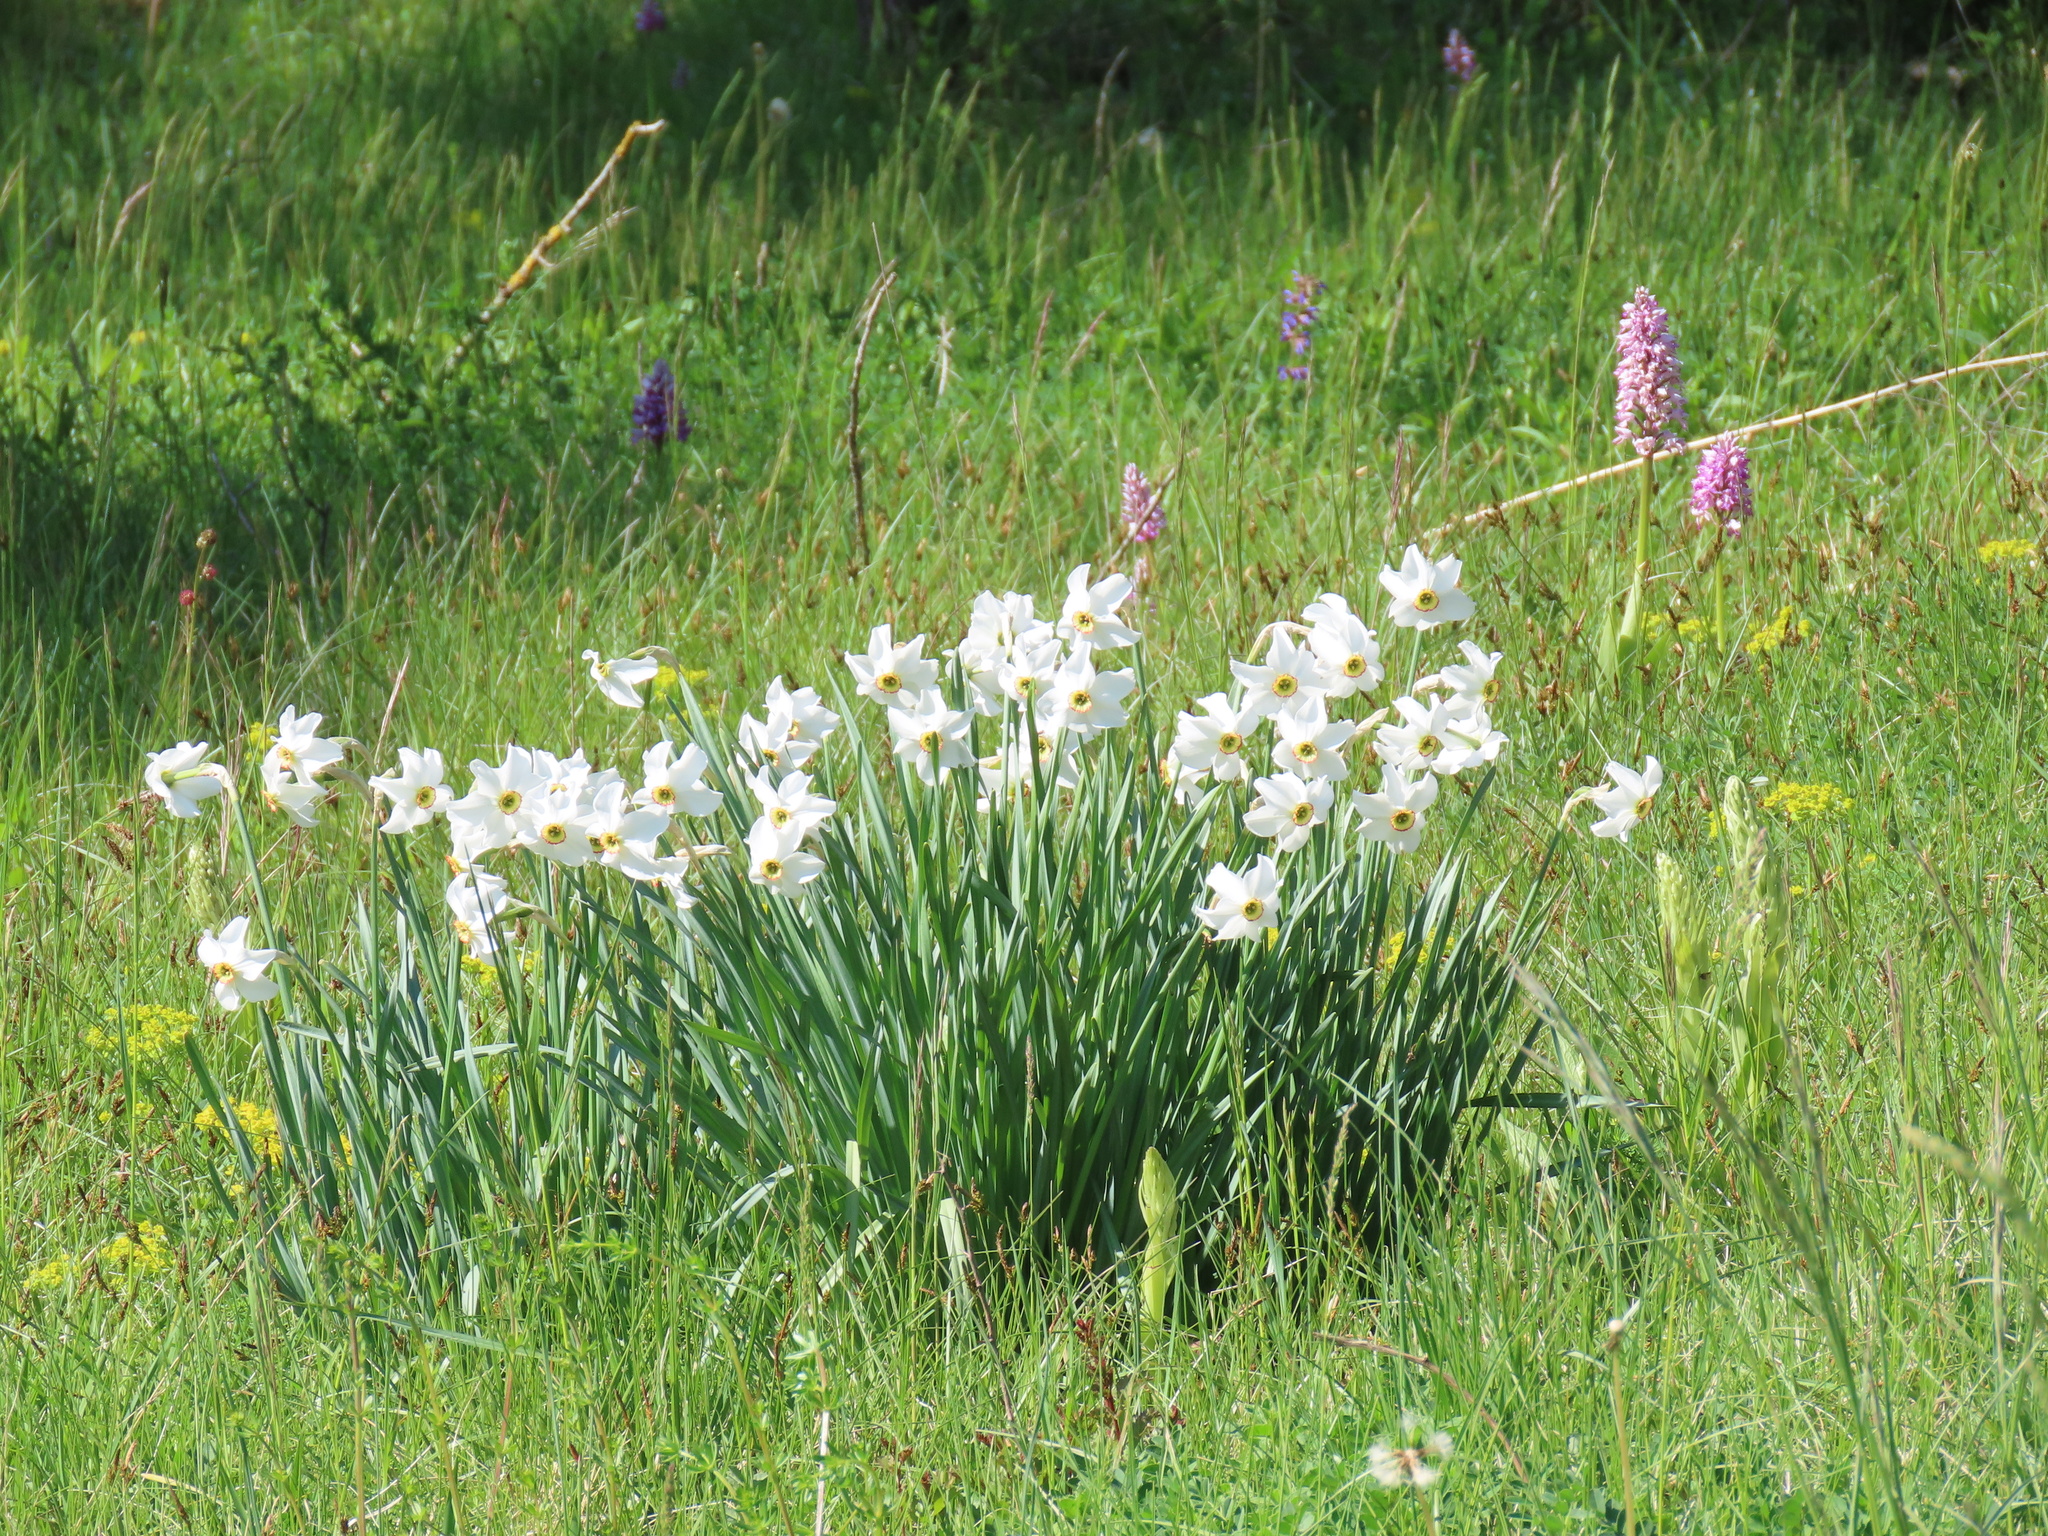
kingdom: Plantae
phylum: Tracheophyta
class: Liliopsida
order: Asparagales
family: Amaryllidaceae
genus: Narcissus
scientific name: Narcissus poeticus
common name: Pheasant's-eye daffodil
